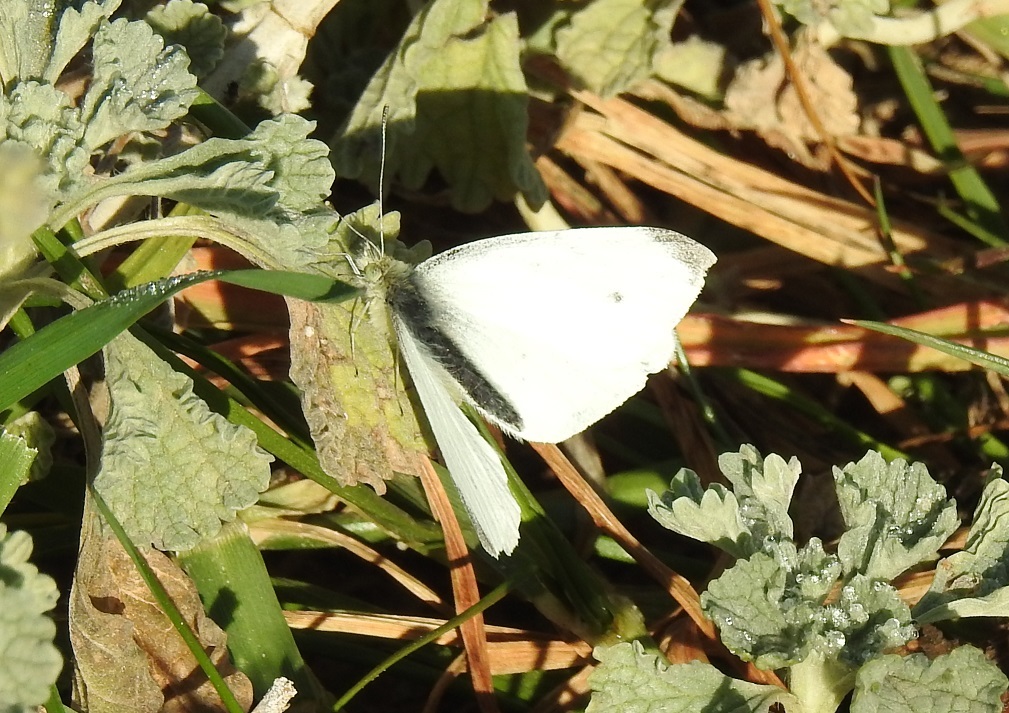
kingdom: Animalia
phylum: Arthropoda
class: Insecta
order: Lepidoptera
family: Pieridae
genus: Pieris
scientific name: Pieris rapae
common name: Small white
